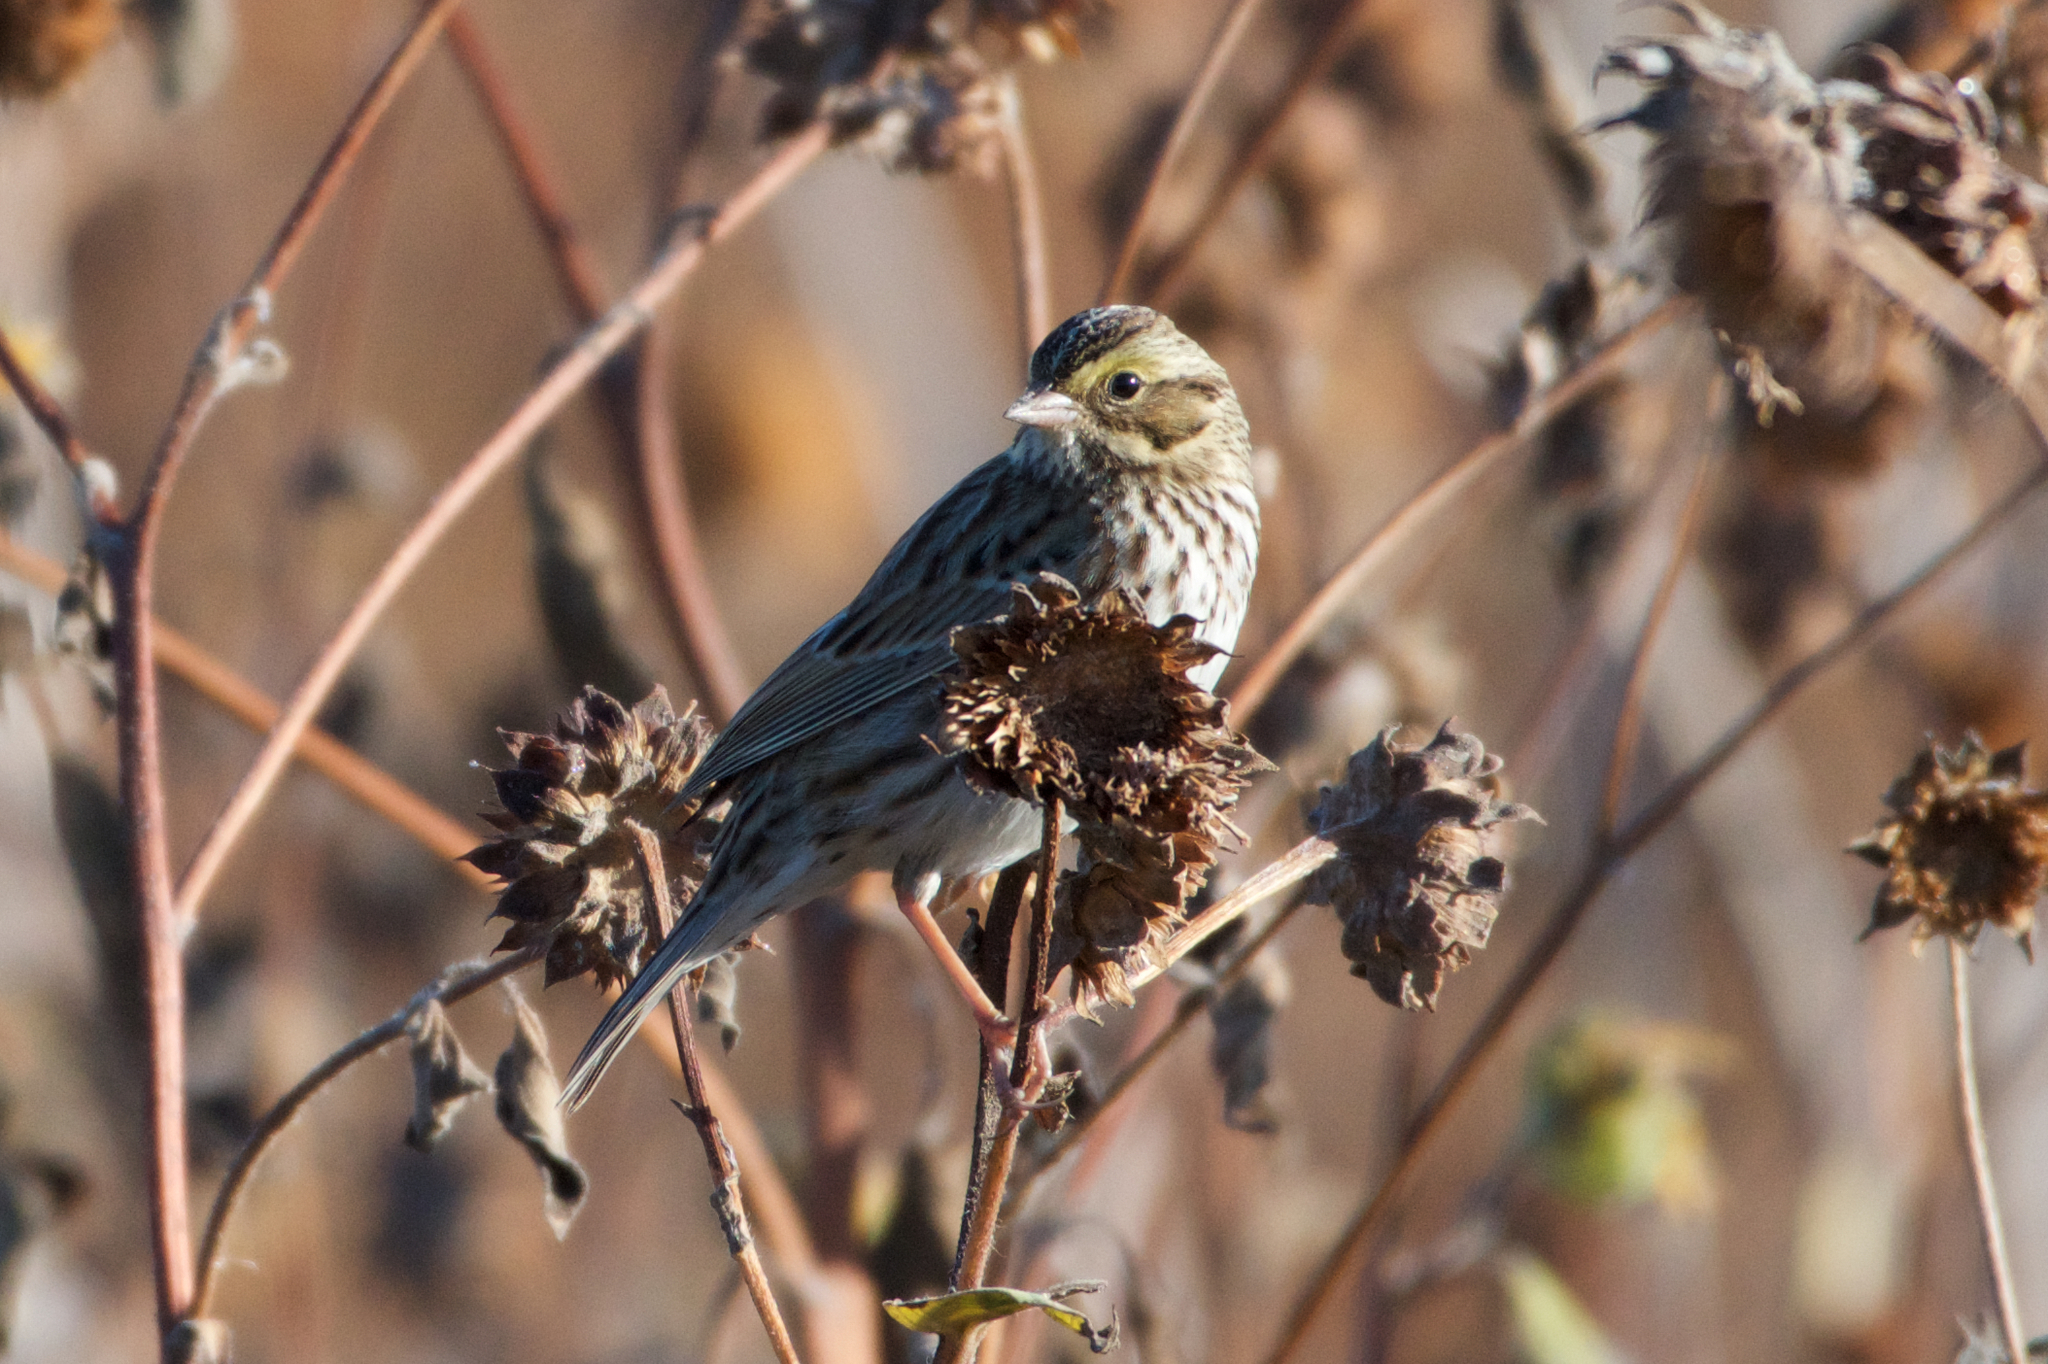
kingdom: Animalia
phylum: Chordata
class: Aves
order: Passeriformes
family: Passerellidae
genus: Passerculus
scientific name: Passerculus sandwichensis
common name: Savannah sparrow
